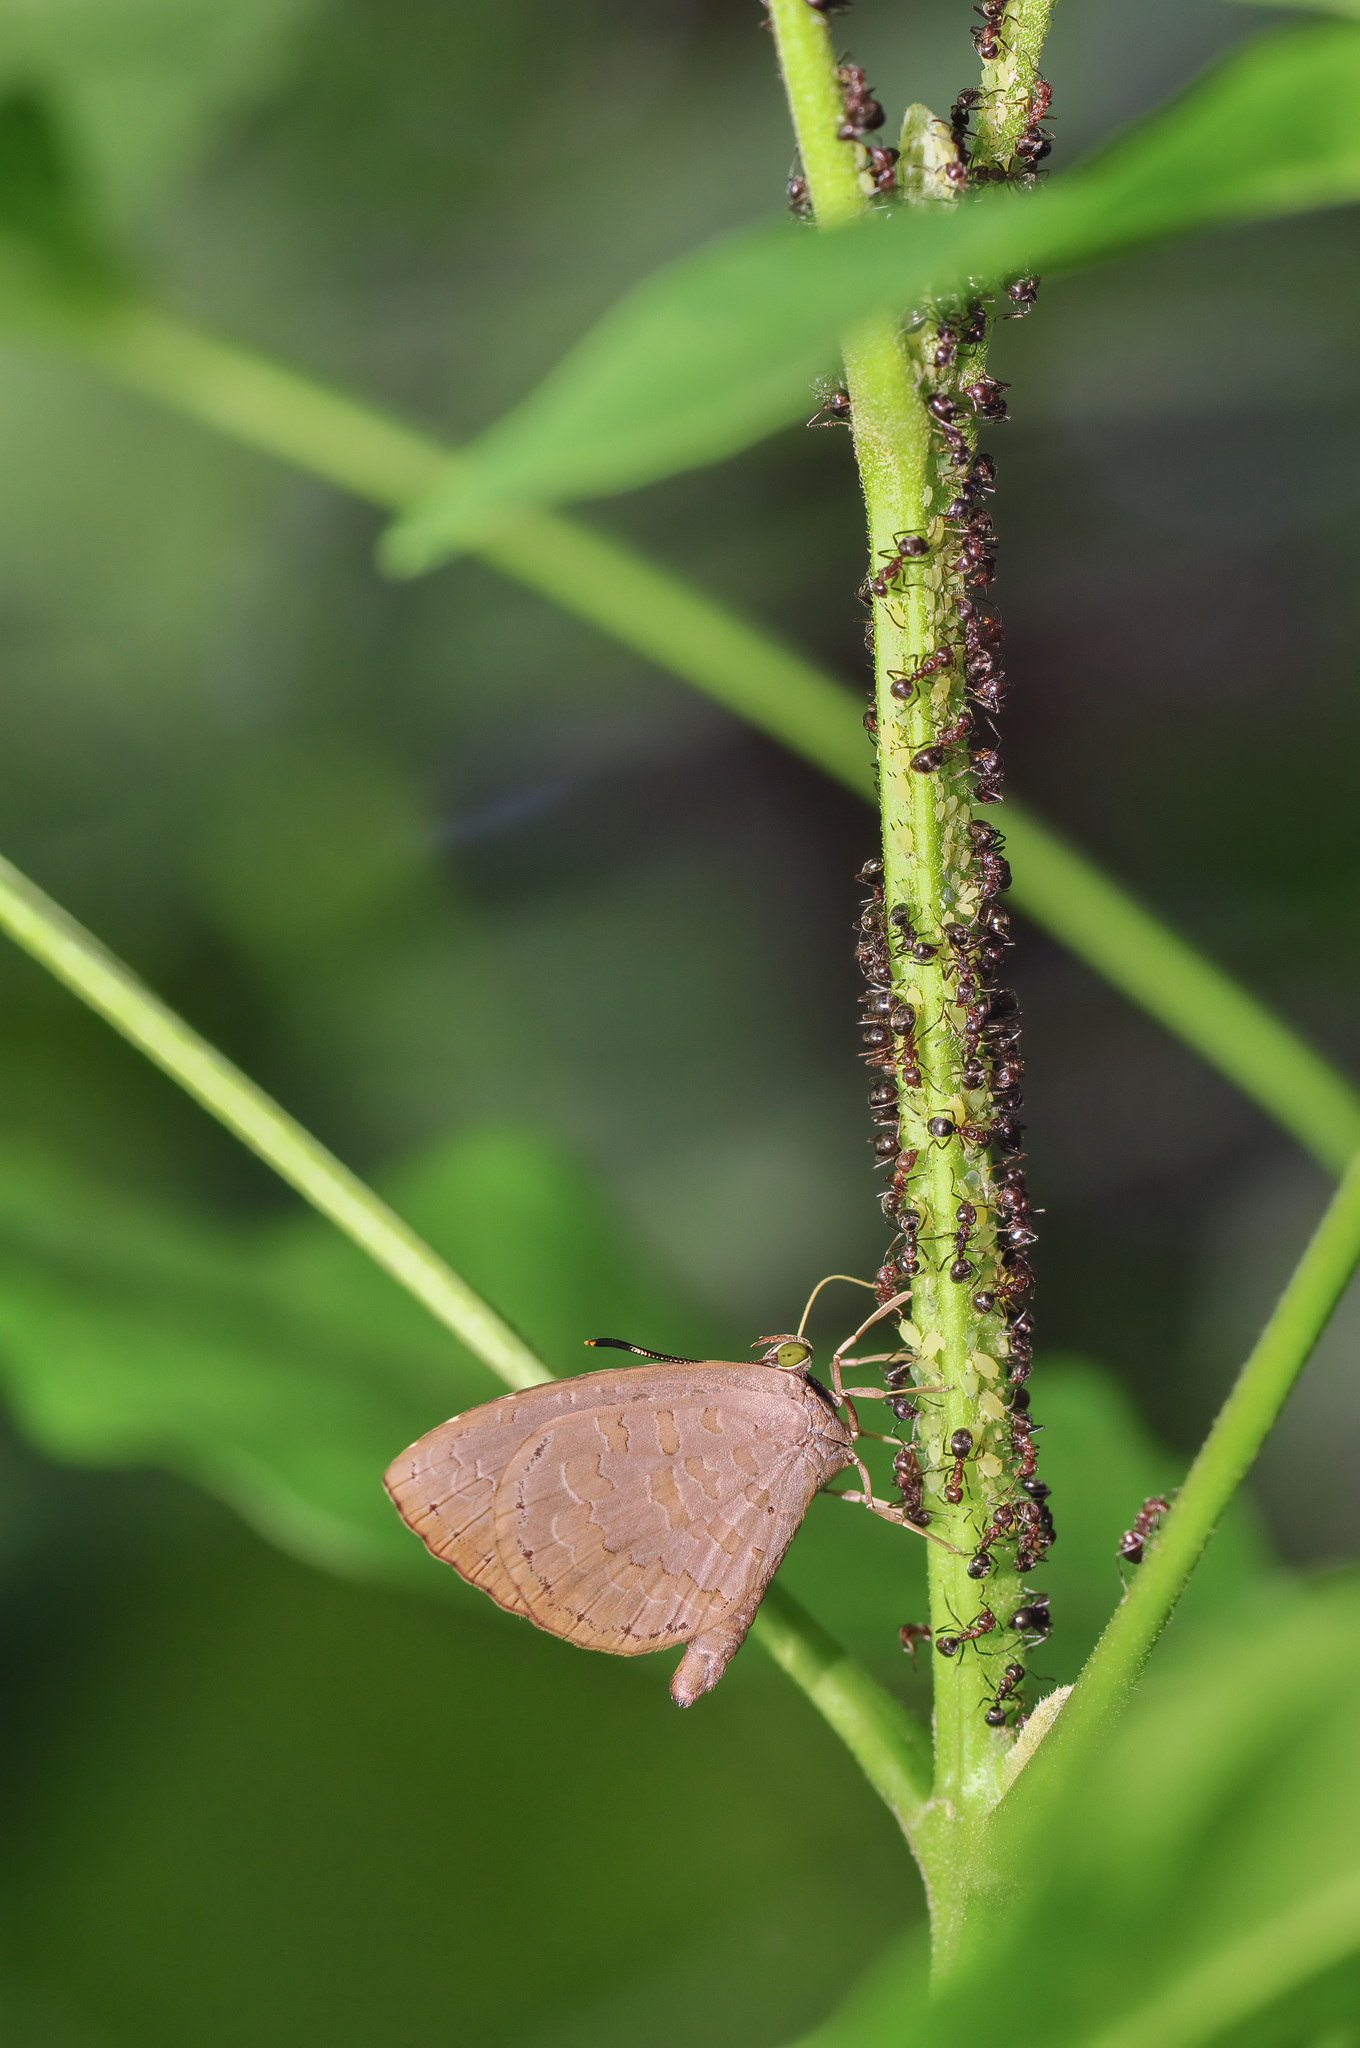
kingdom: Animalia
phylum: Arthropoda
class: Insecta
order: Lepidoptera
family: Lycaenidae
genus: Miletus
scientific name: Miletus biggsii
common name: Bigg's brownie
